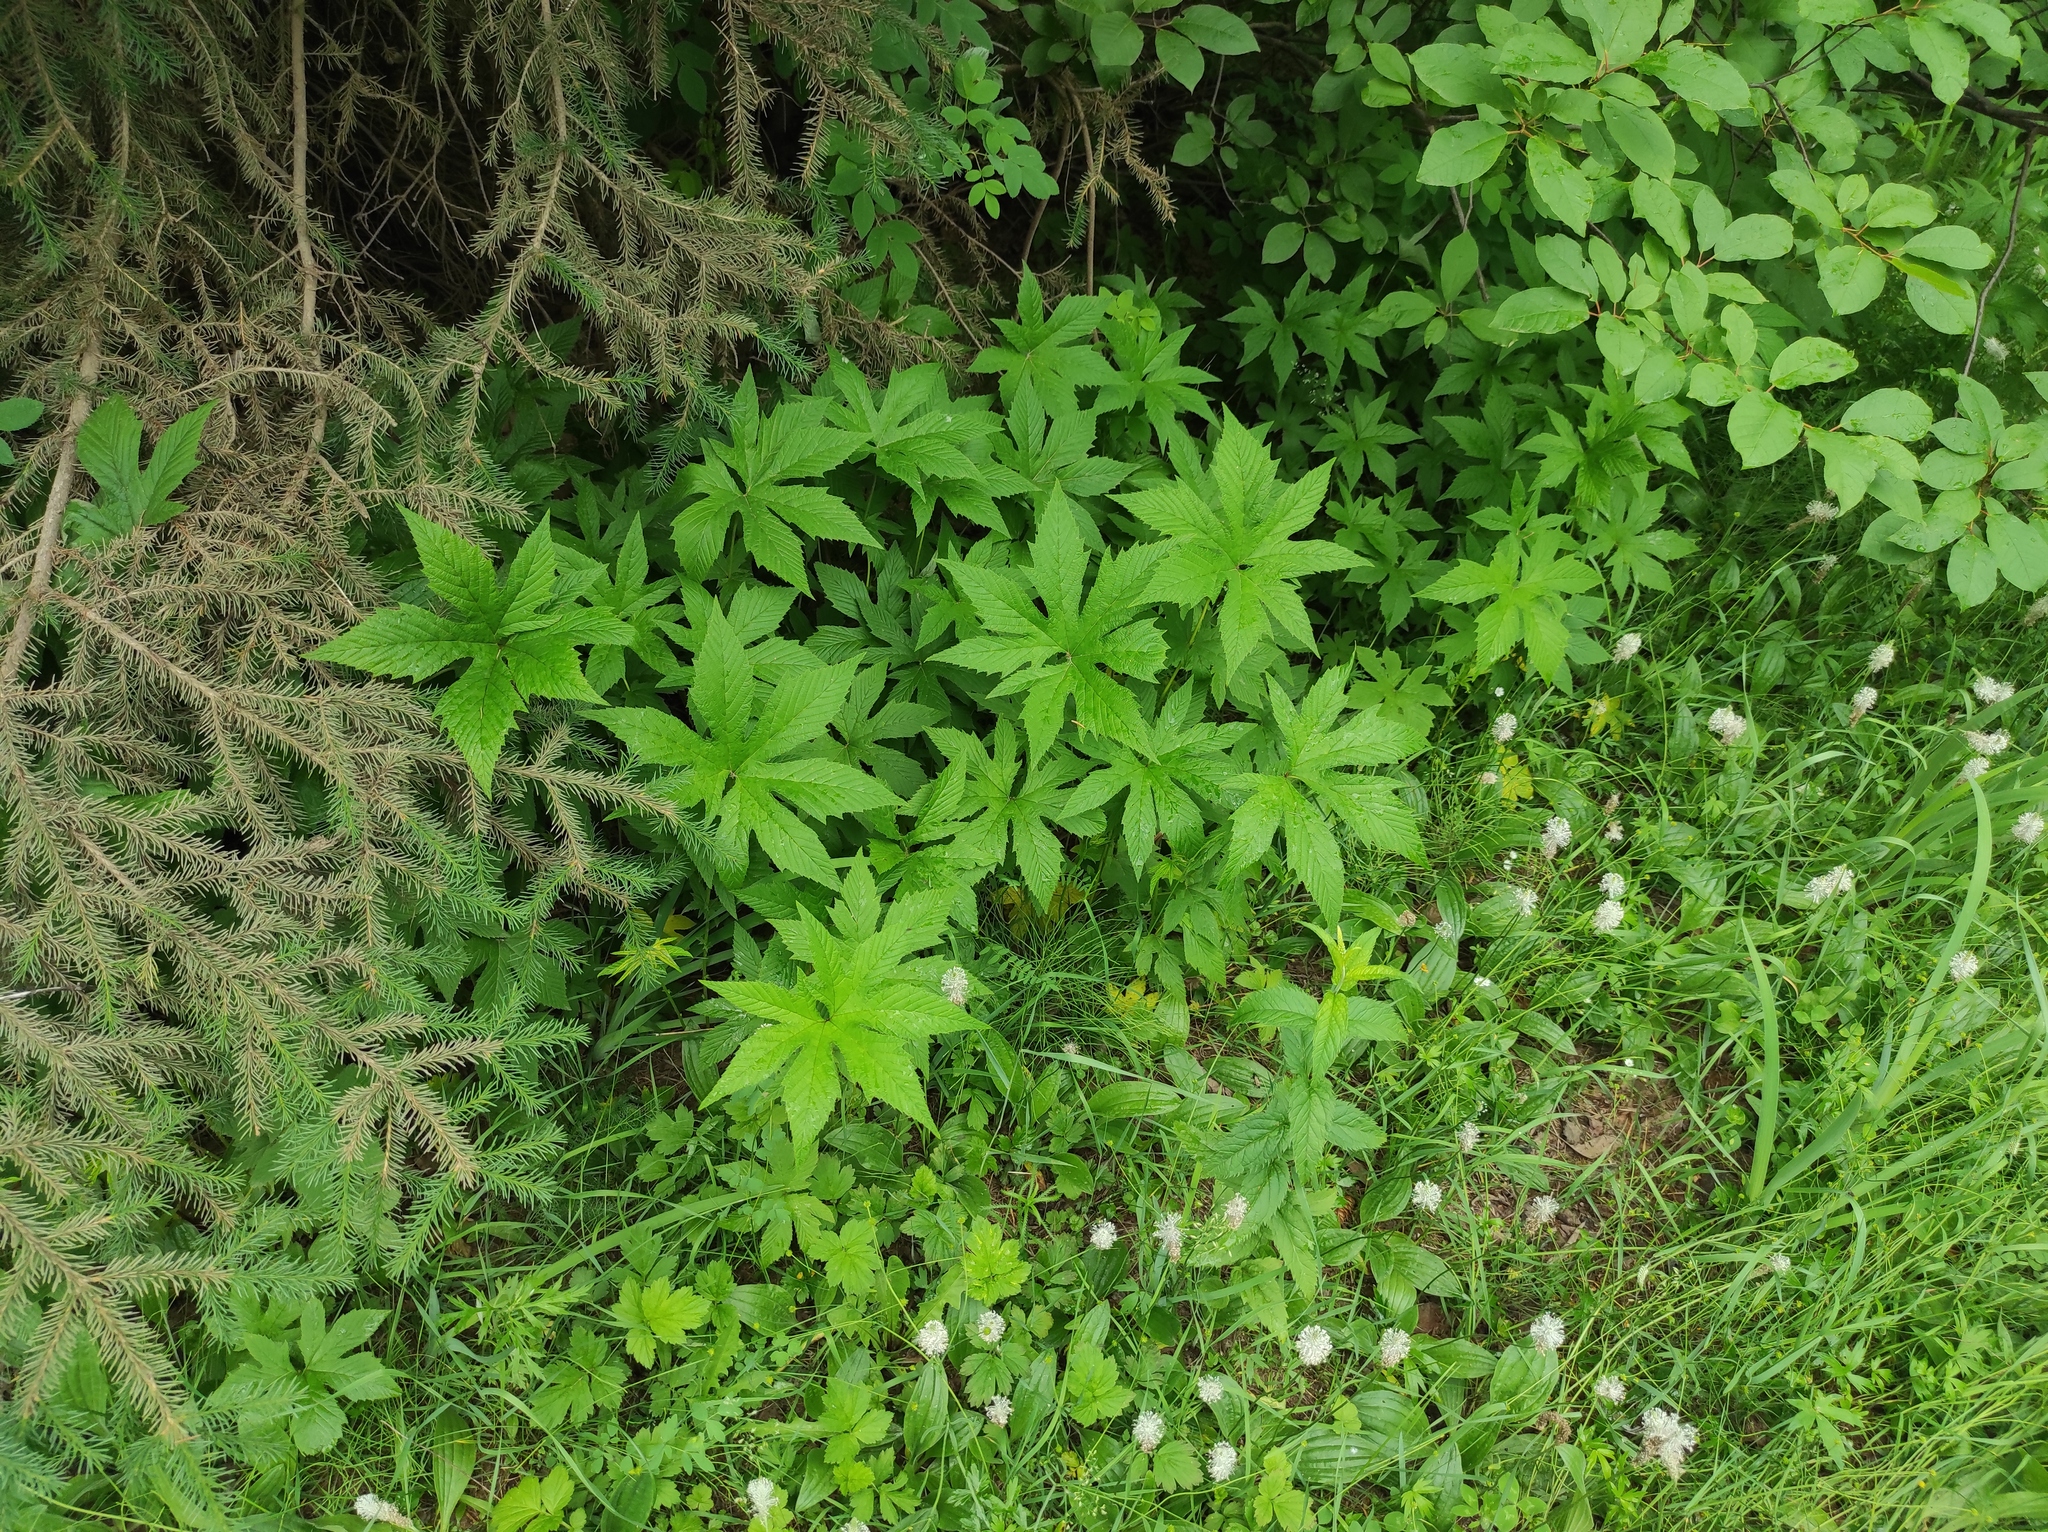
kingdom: Plantae
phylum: Tracheophyta
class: Magnoliopsida
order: Rosales
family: Rosaceae
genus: Filipendula
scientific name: Filipendula digitata
